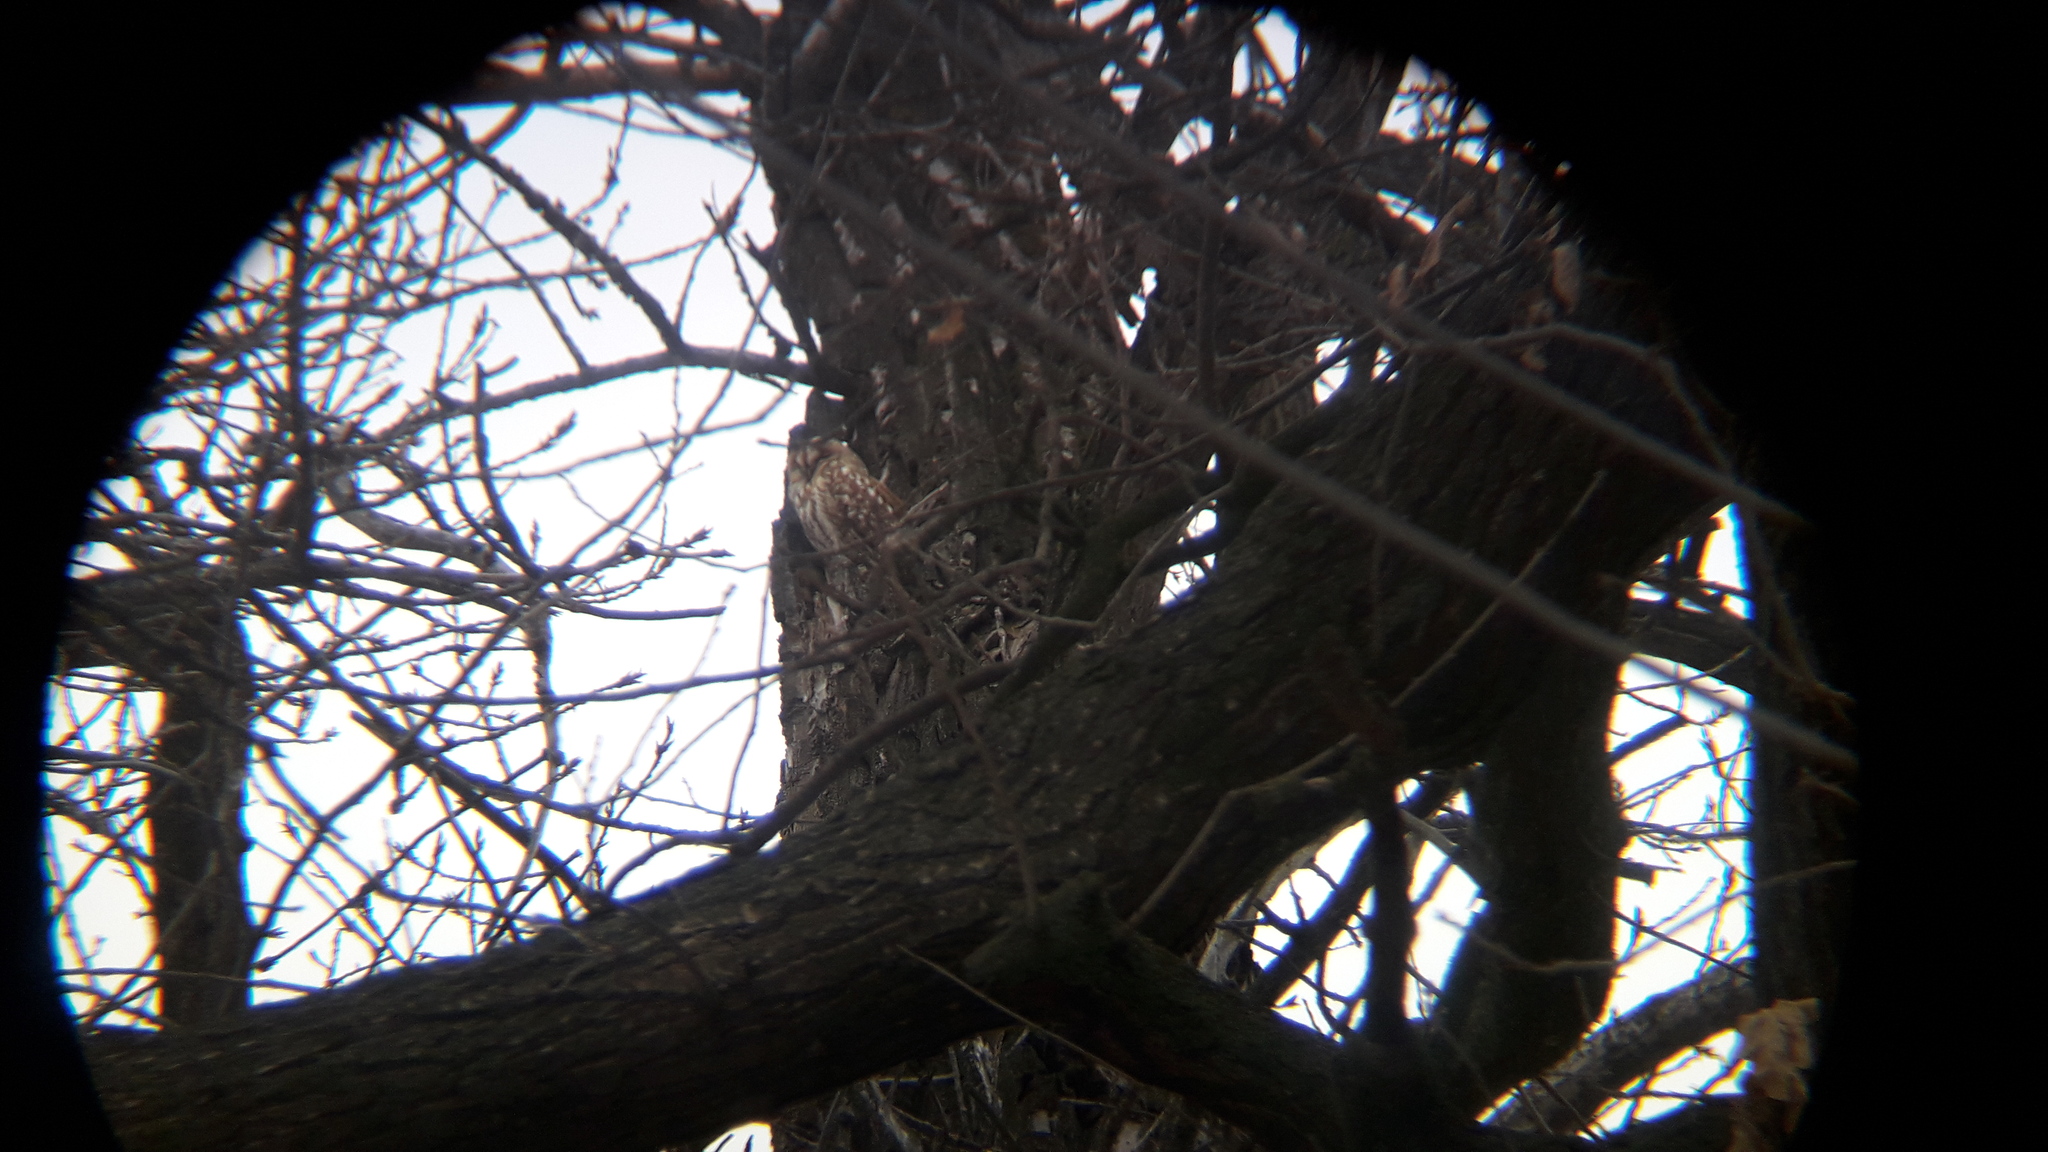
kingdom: Animalia
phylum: Chordata
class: Aves
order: Strigiformes
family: Strigidae
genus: Strix
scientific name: Strix aluco
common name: Tawny owl
